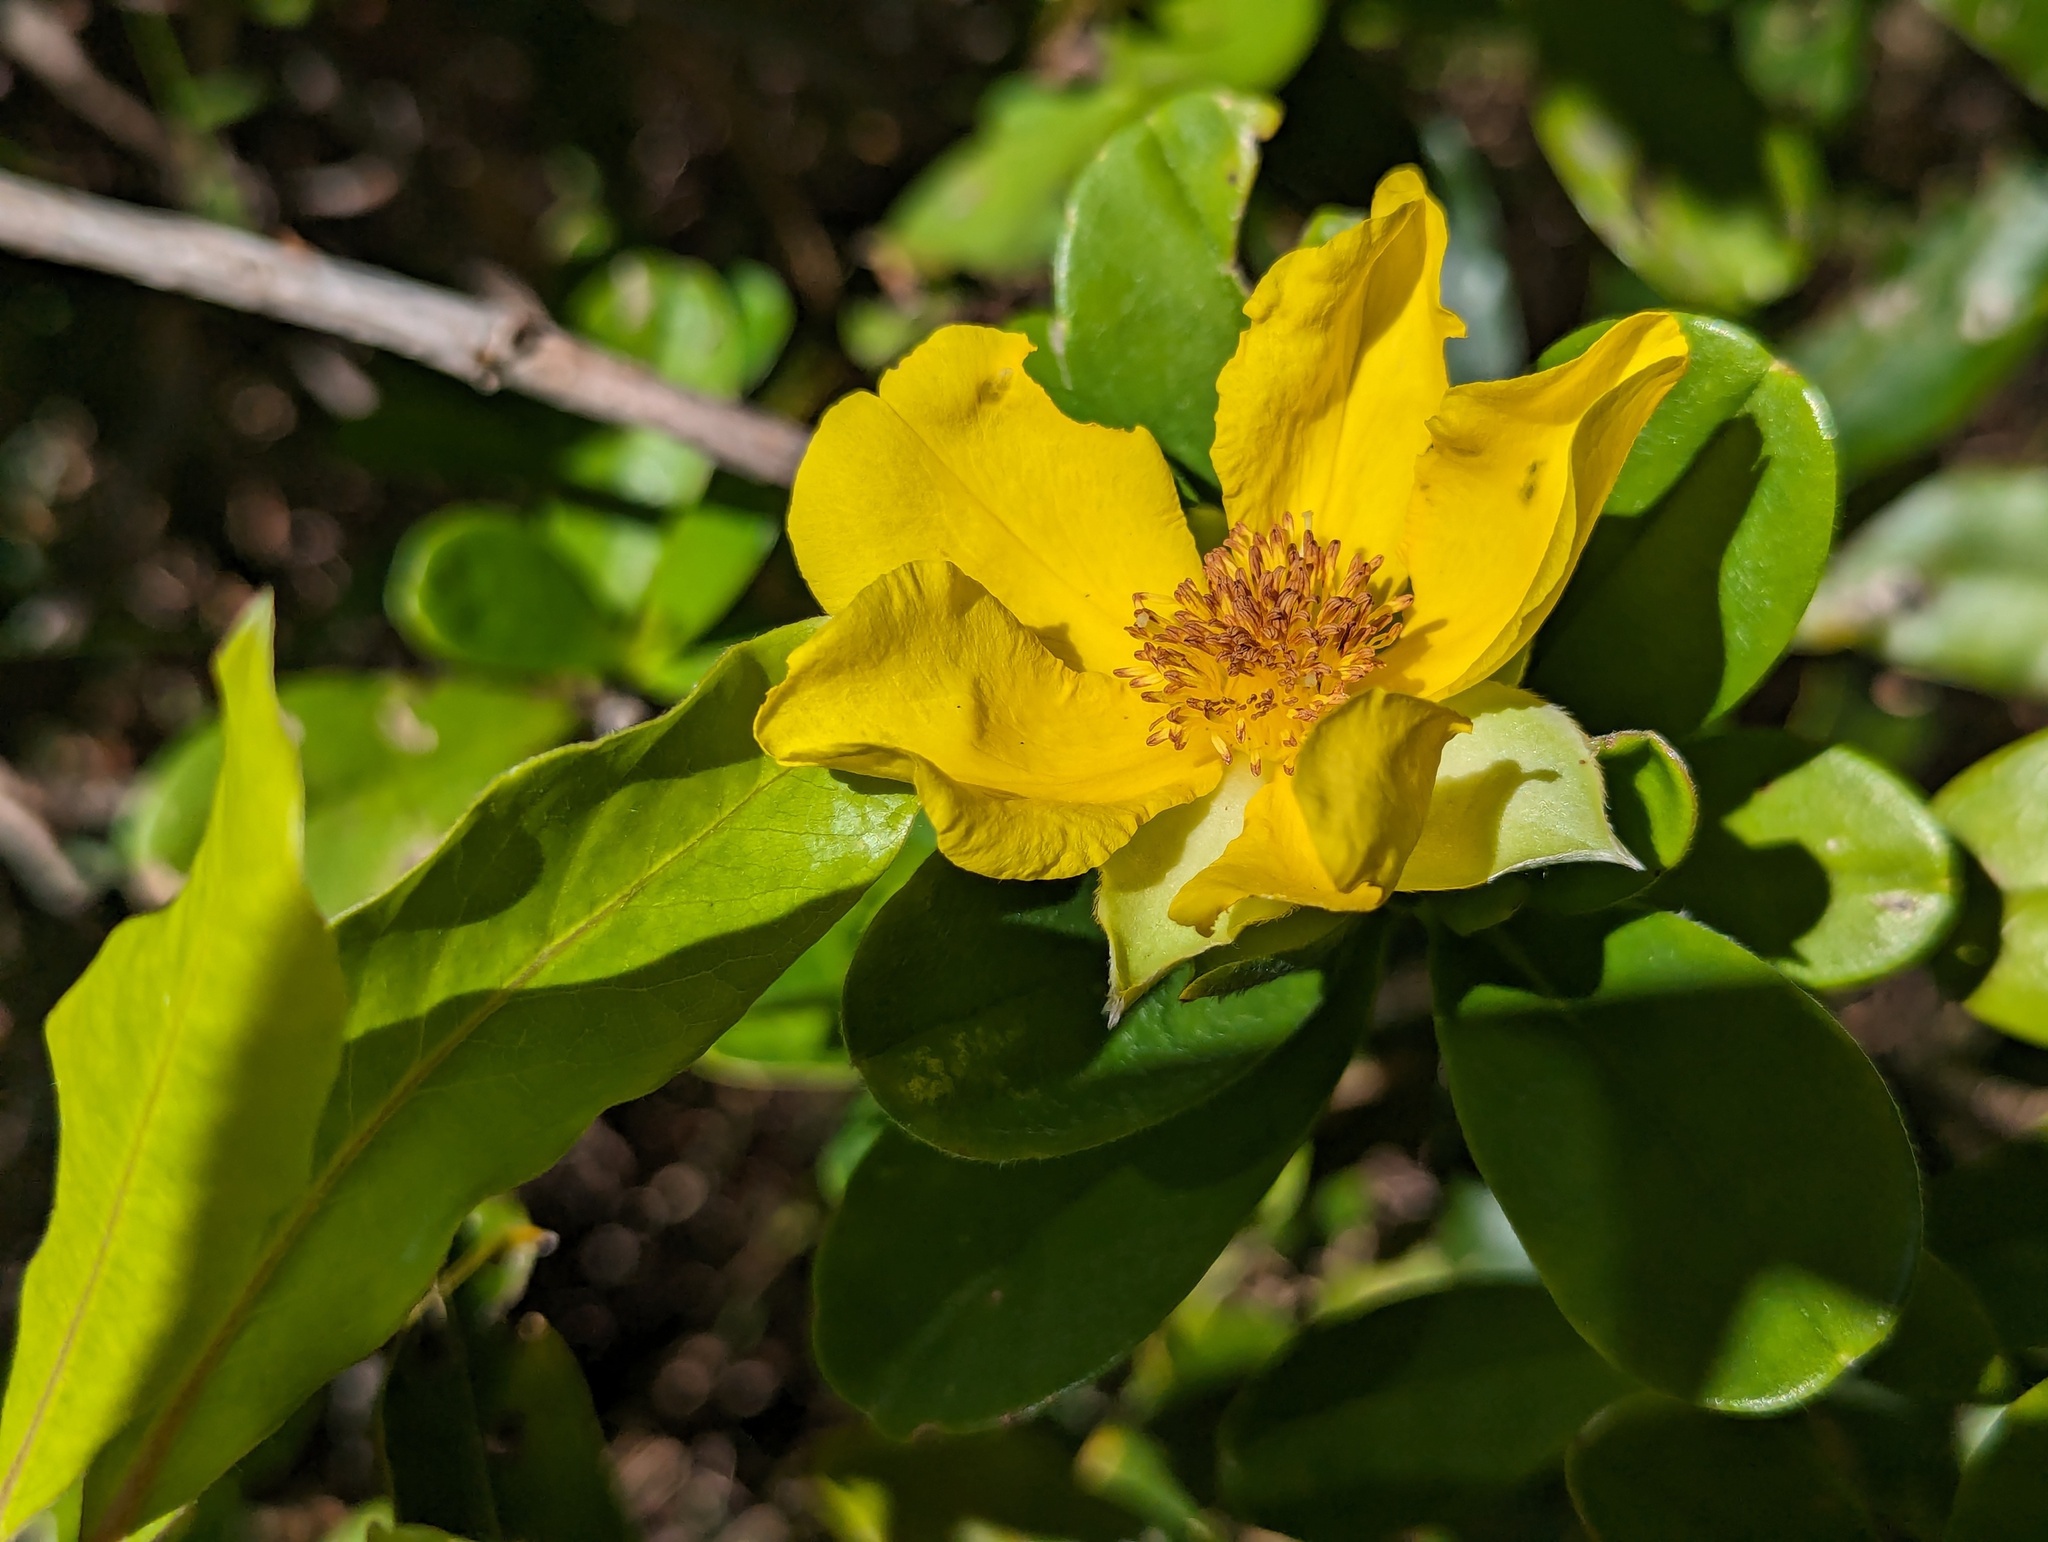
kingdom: Plantae
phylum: Tracheophyta
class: Magnoliopsida
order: Dilleniales
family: Dilleniaceae
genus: Hibbertia
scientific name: Hibbertia scandens
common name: Climbing guinea-flower
